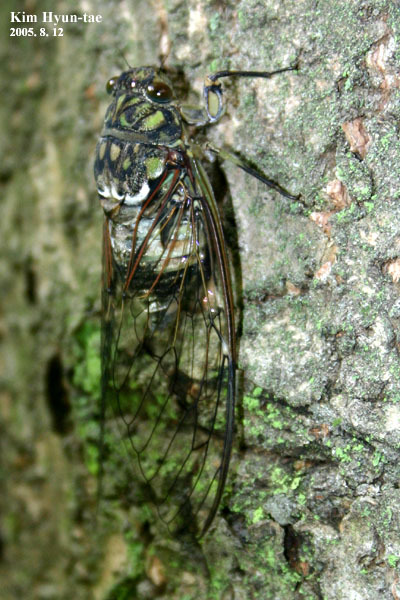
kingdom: Animalia
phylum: Arthropoda
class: Insecta
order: Hemiptera
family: Cicadidae
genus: Hyalessa
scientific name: Hyalessa maculaticollis
